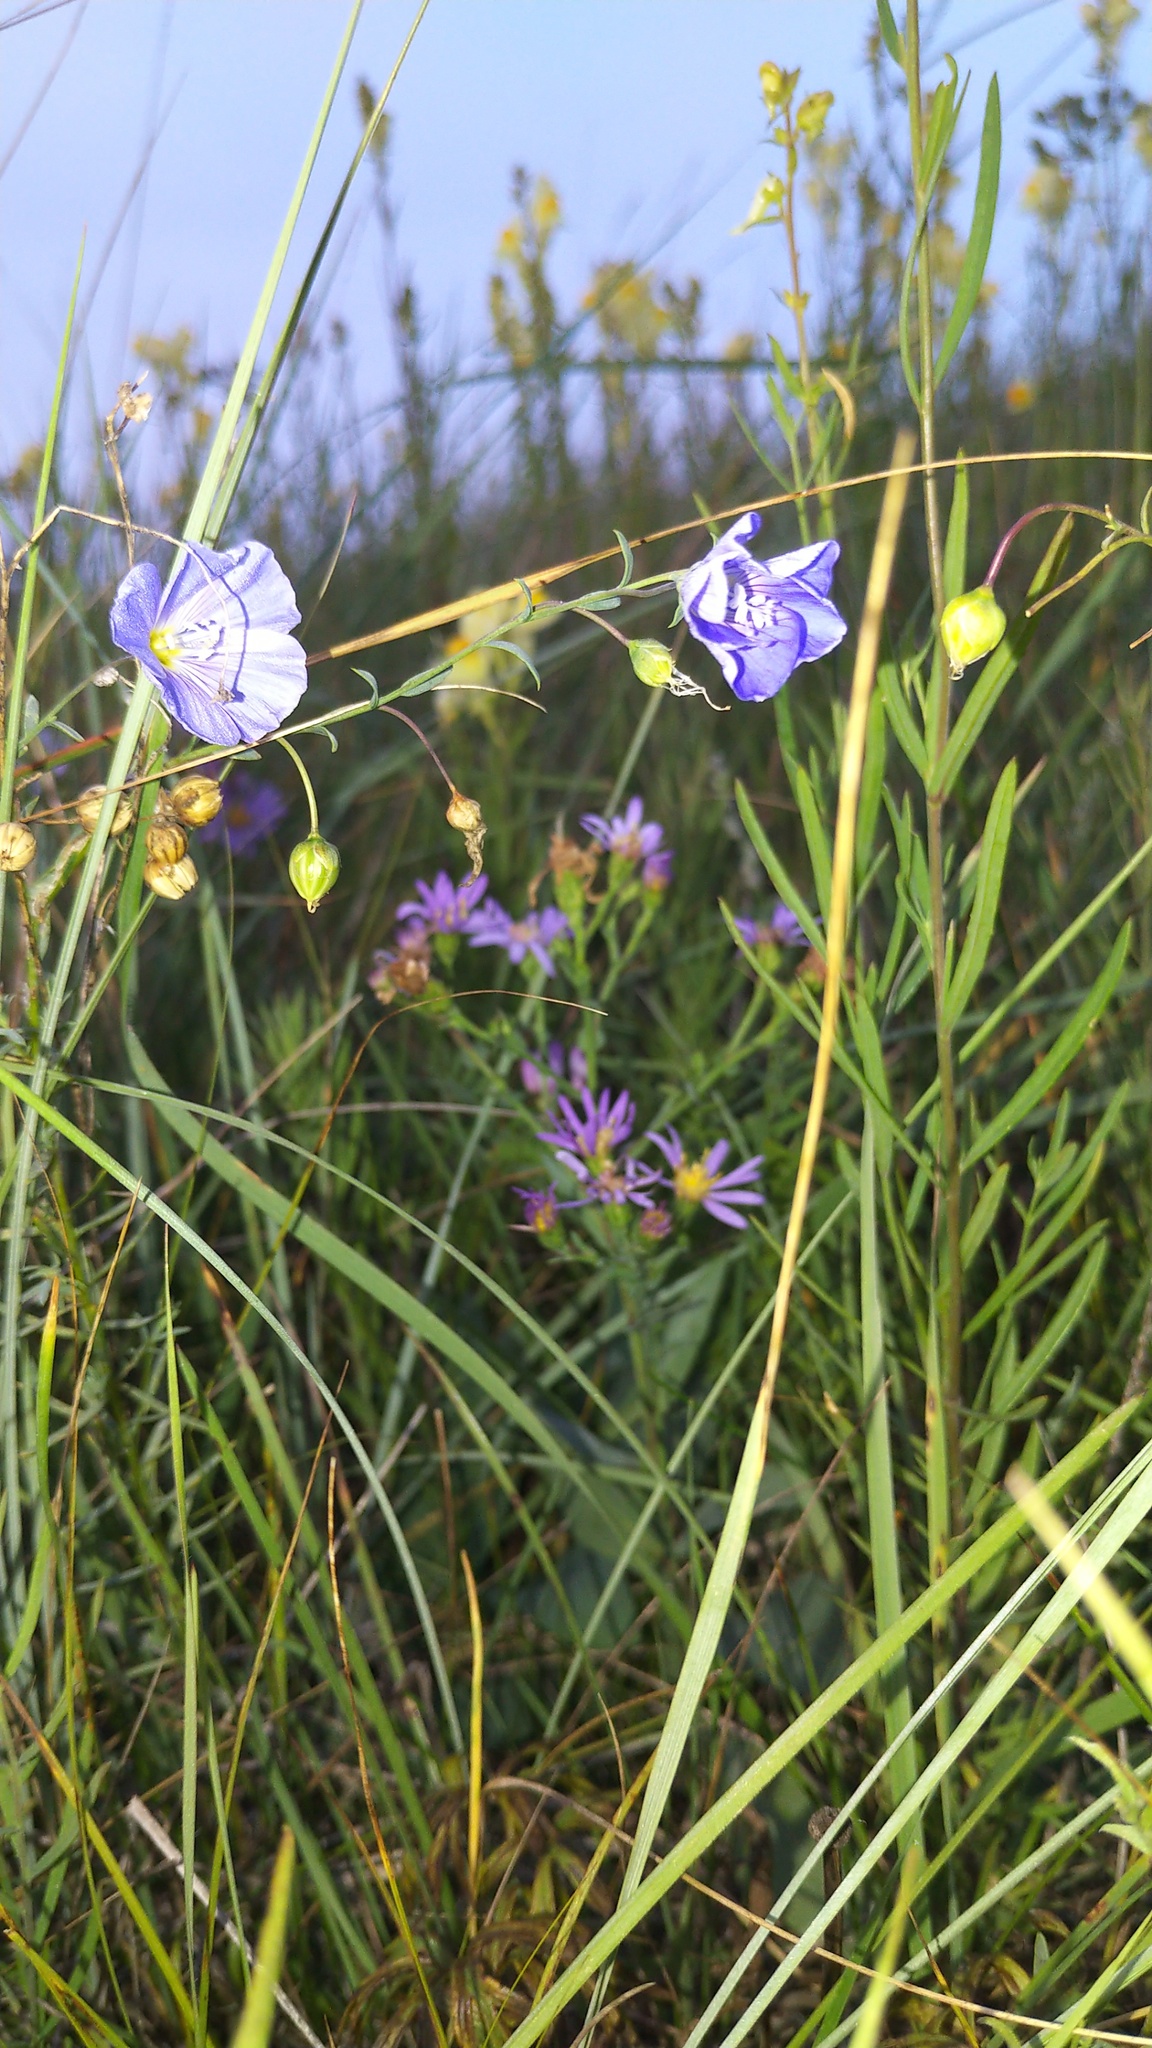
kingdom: Plantae
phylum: Tracheophyta
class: Magnoliopsida
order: Malpighiales
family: Linaceae
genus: Linum
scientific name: Linum lewisii
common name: Prairie flax
